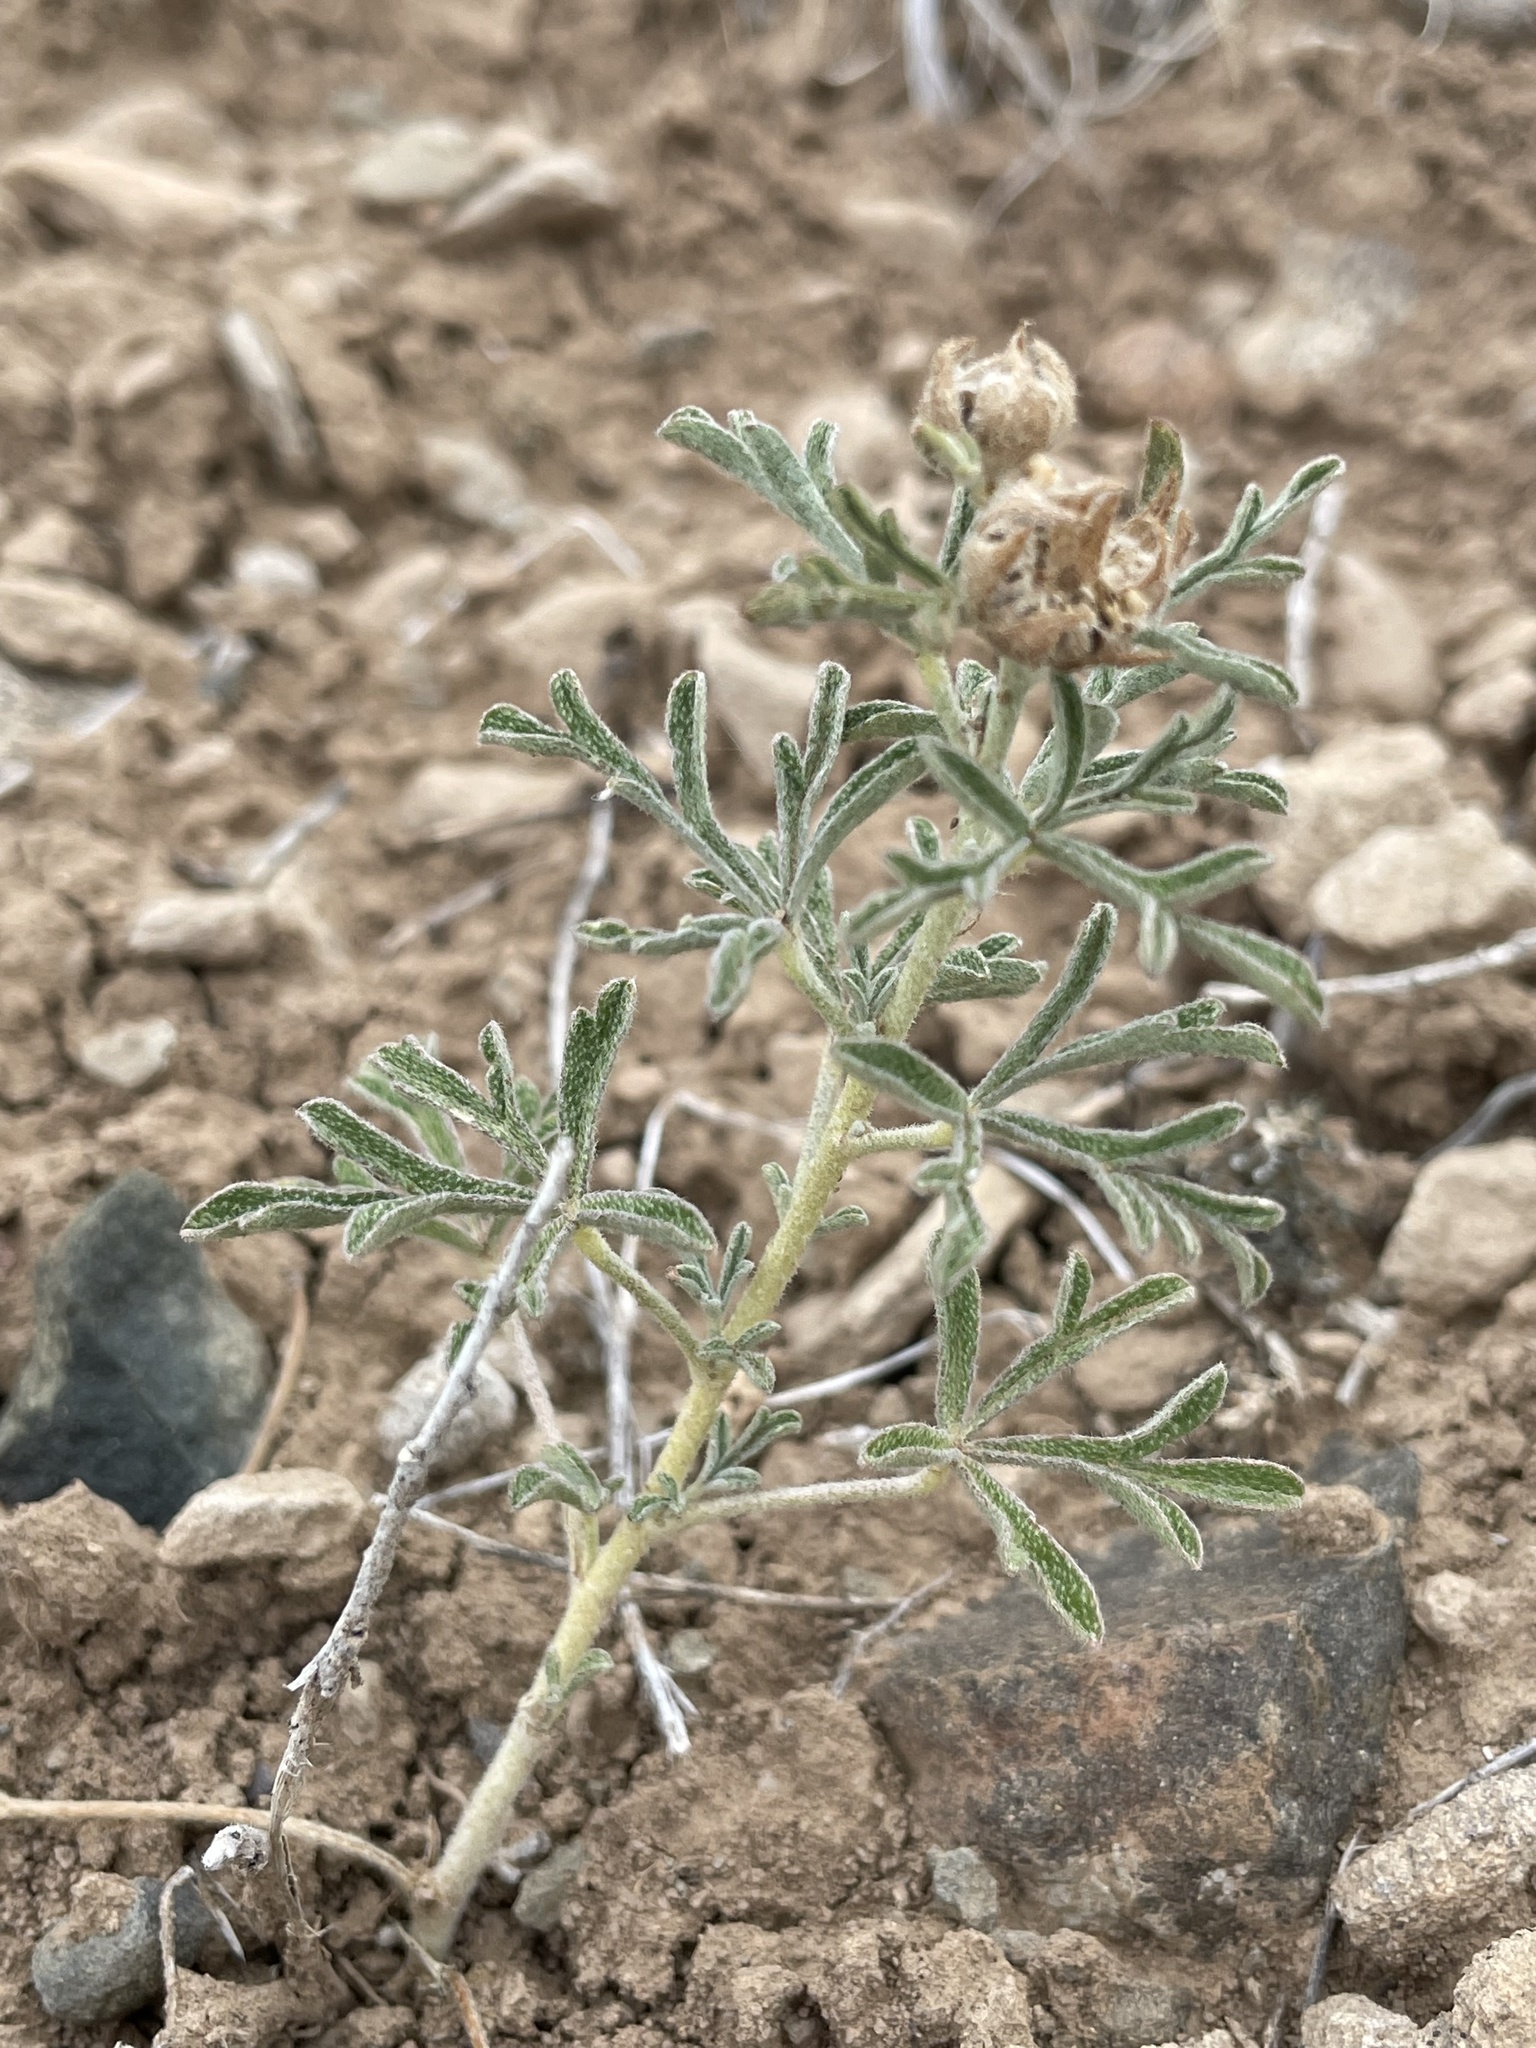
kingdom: Plantae
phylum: Tracheophyta
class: Magnoliopsida
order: Malvales
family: Malvaceae
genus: Sphaeralcea
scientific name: Sphaeralcea coccinea
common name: Moss-rose
